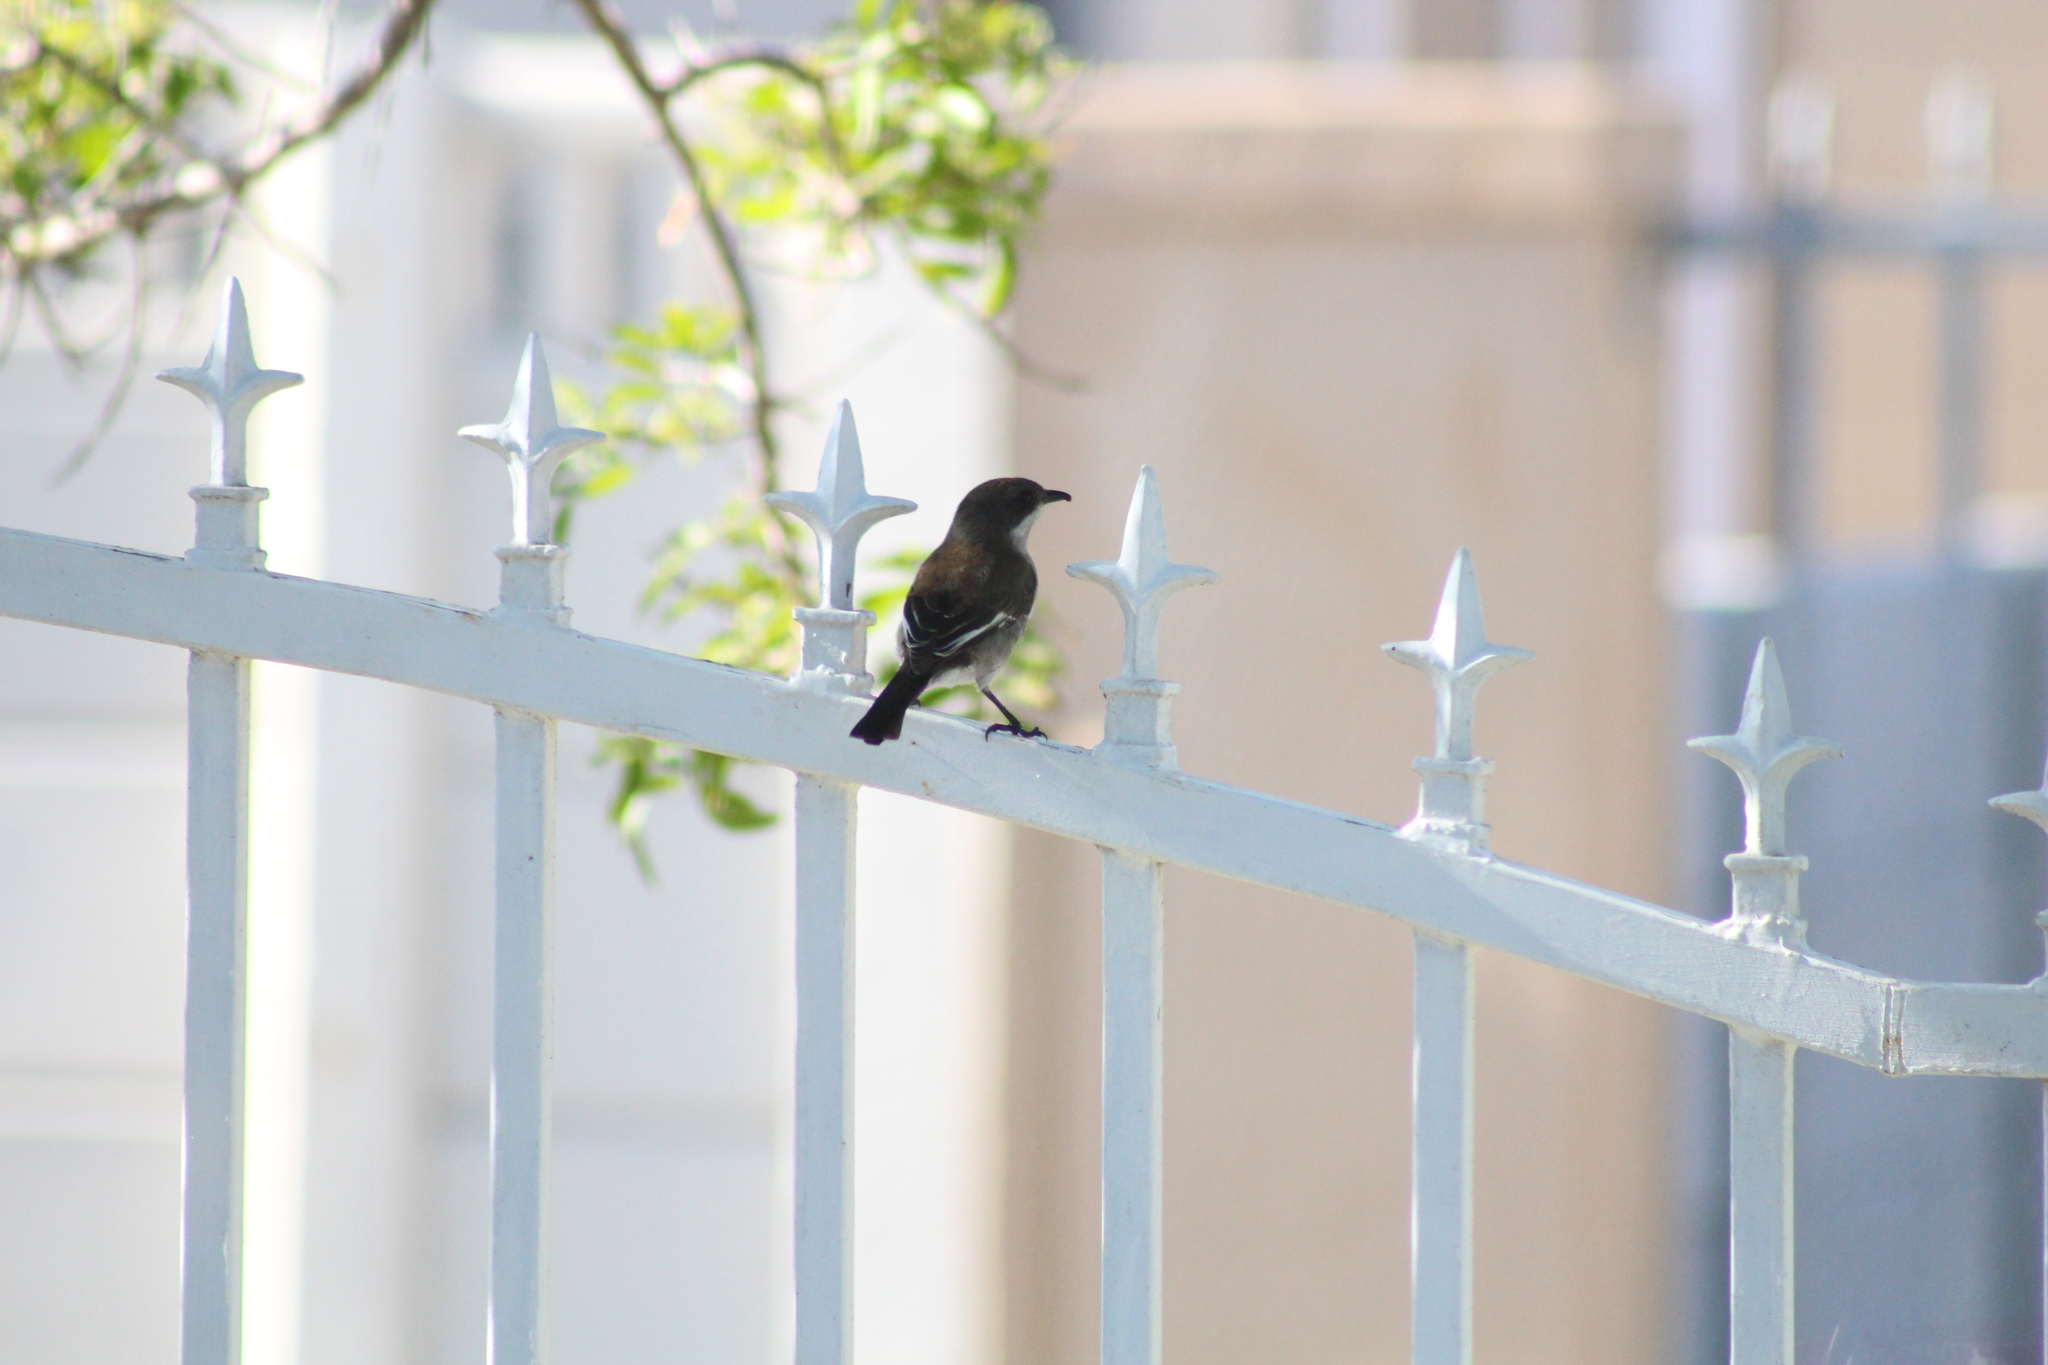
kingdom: Animalia
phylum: Chordata
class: Aves
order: Passeriformes
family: Muscicapidae
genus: Sigelus
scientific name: Sigelus silens
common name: Fiscal flycatcher
